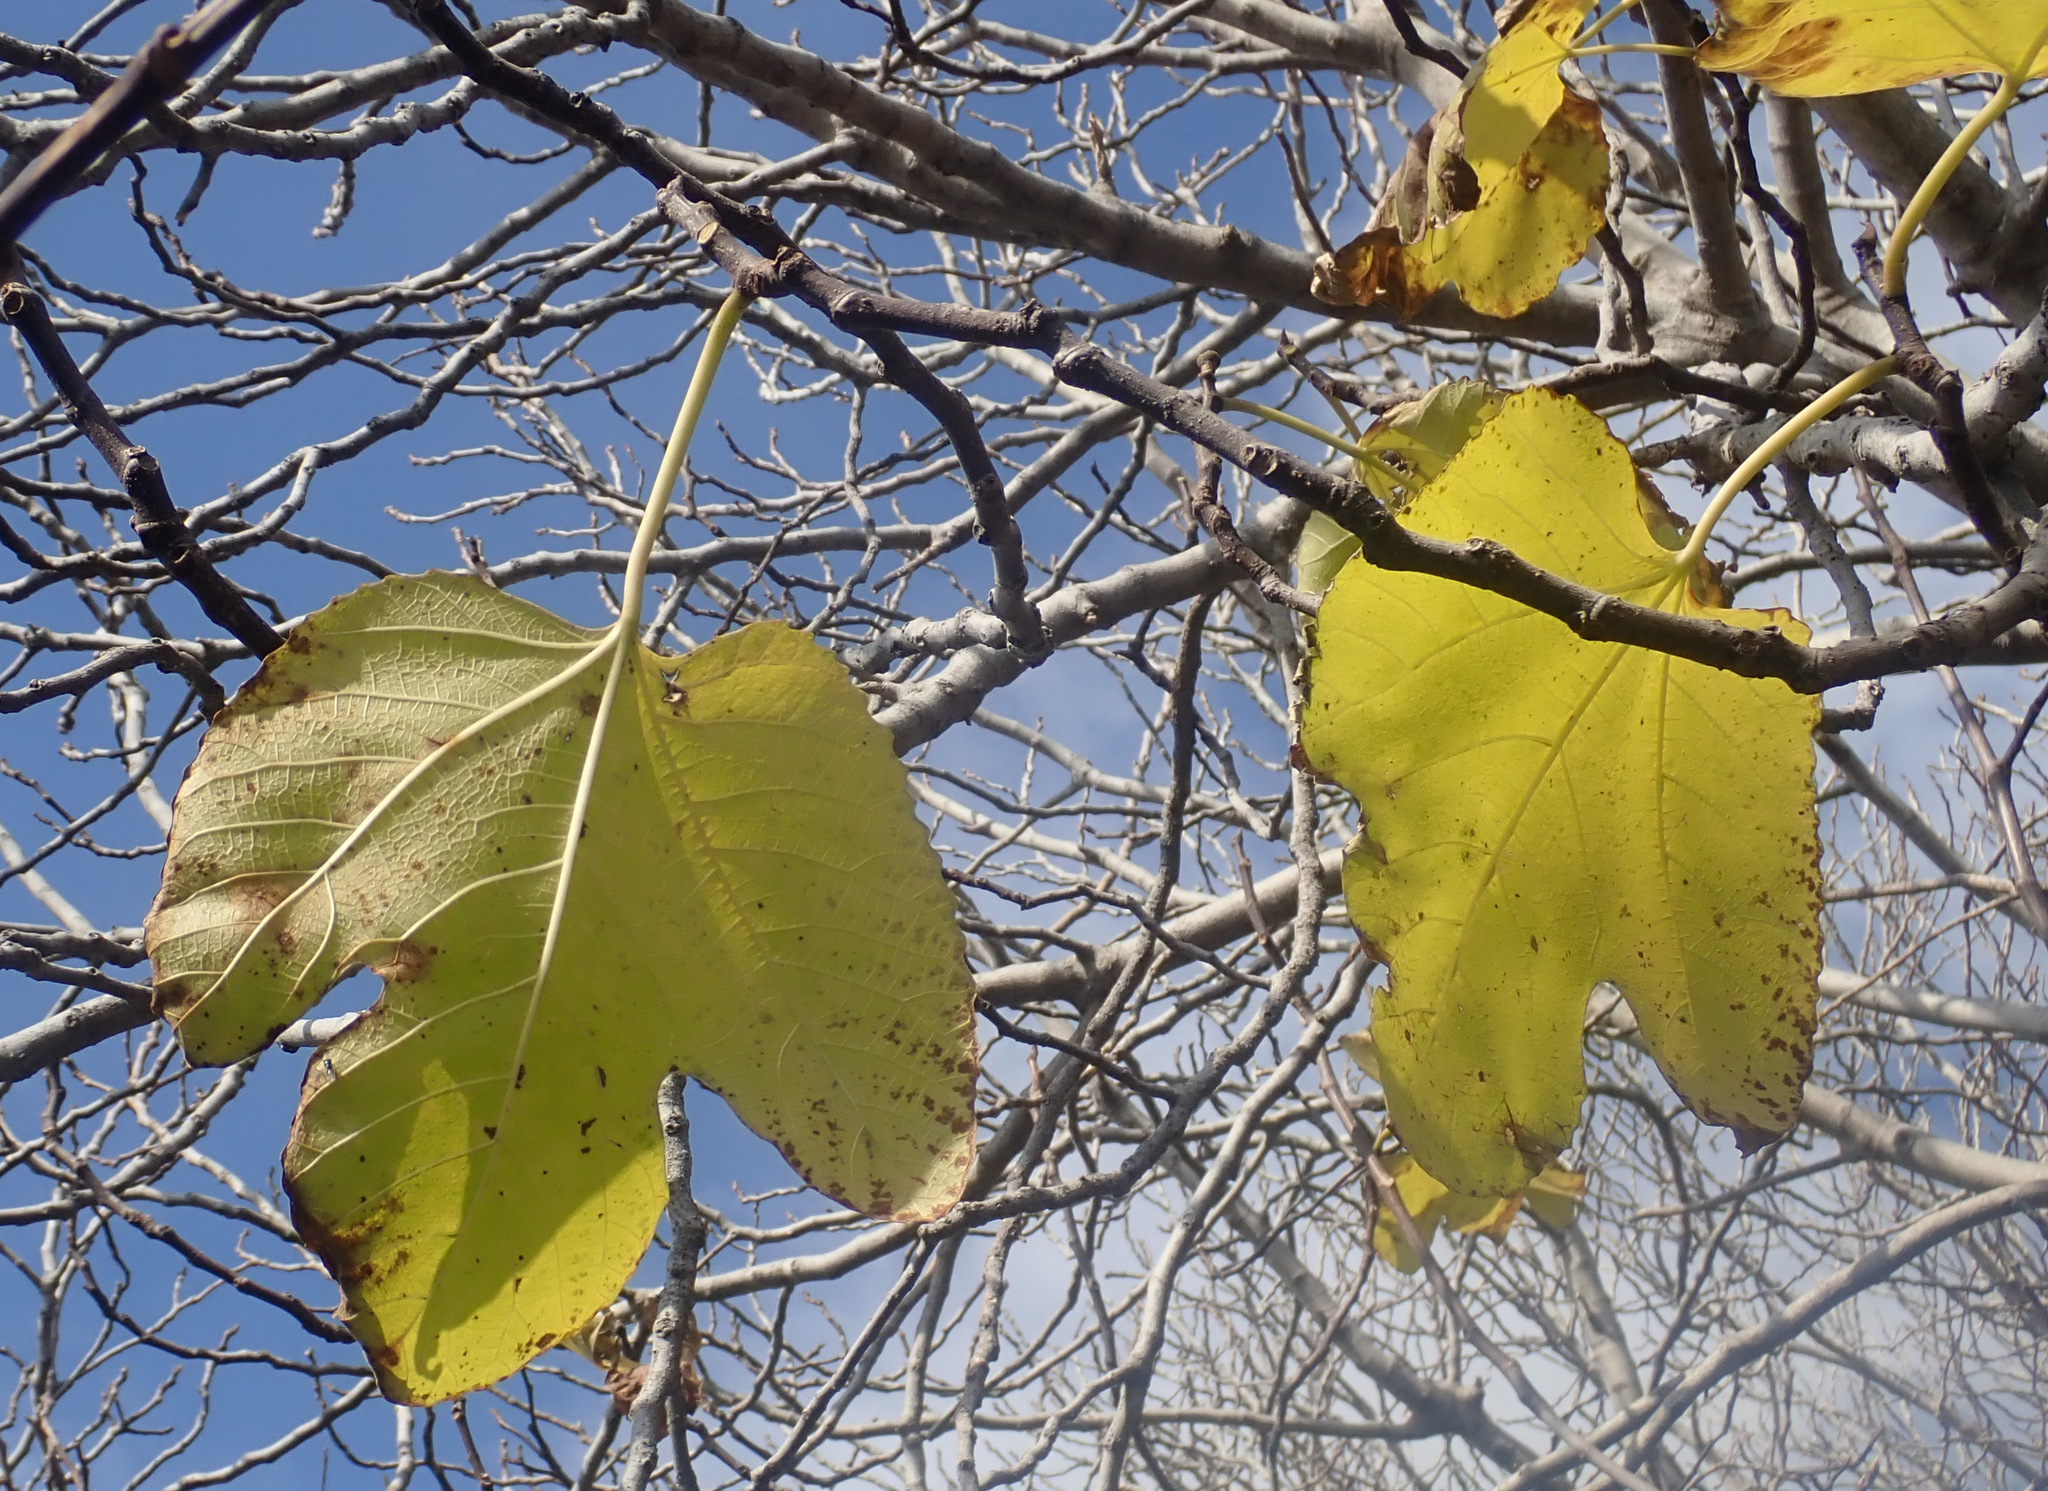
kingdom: Plantae
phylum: Tracheophyta
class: Magnoliopsida
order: Rosales
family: Moraceae
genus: Ficus
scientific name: Ficus carica
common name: Fig
